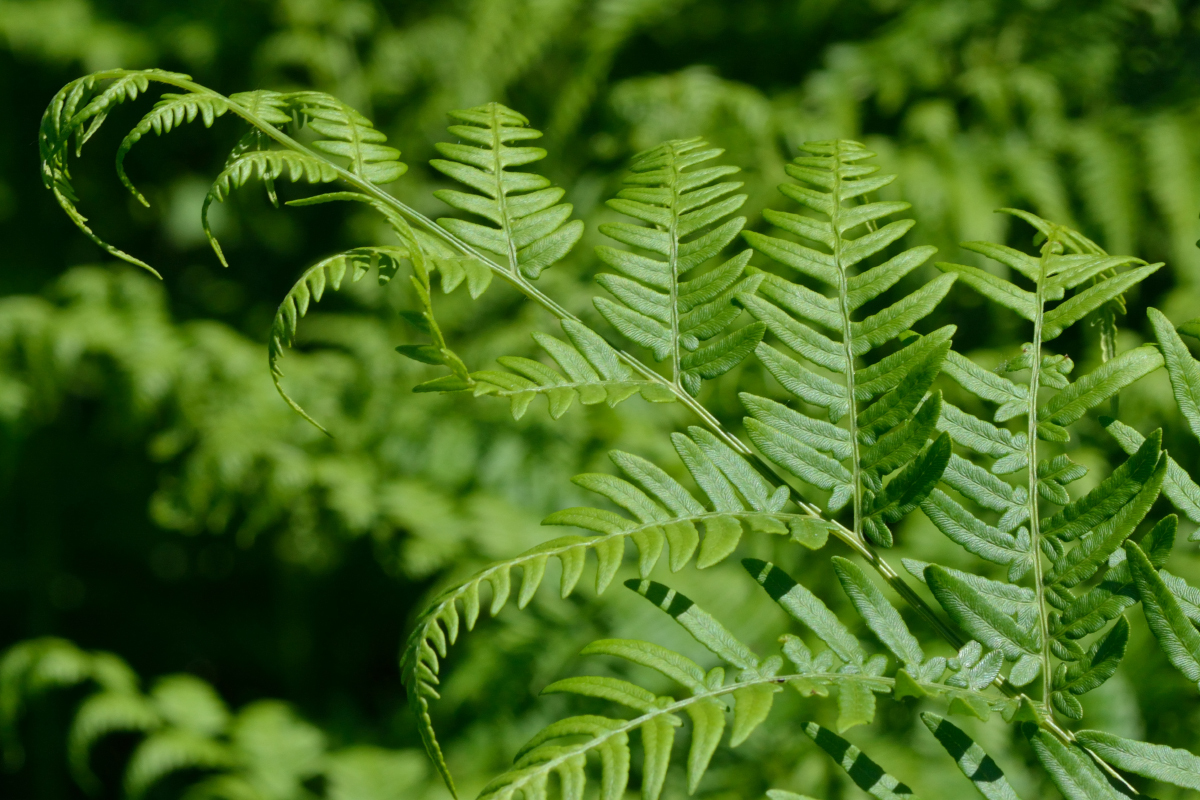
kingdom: Plantae
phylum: Tracheophyta
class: Polypodiopsida
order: Polypodiales
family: Dennstaedtiaceae
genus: Pteridium
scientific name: Pteridium aquilinum
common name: Bracken
